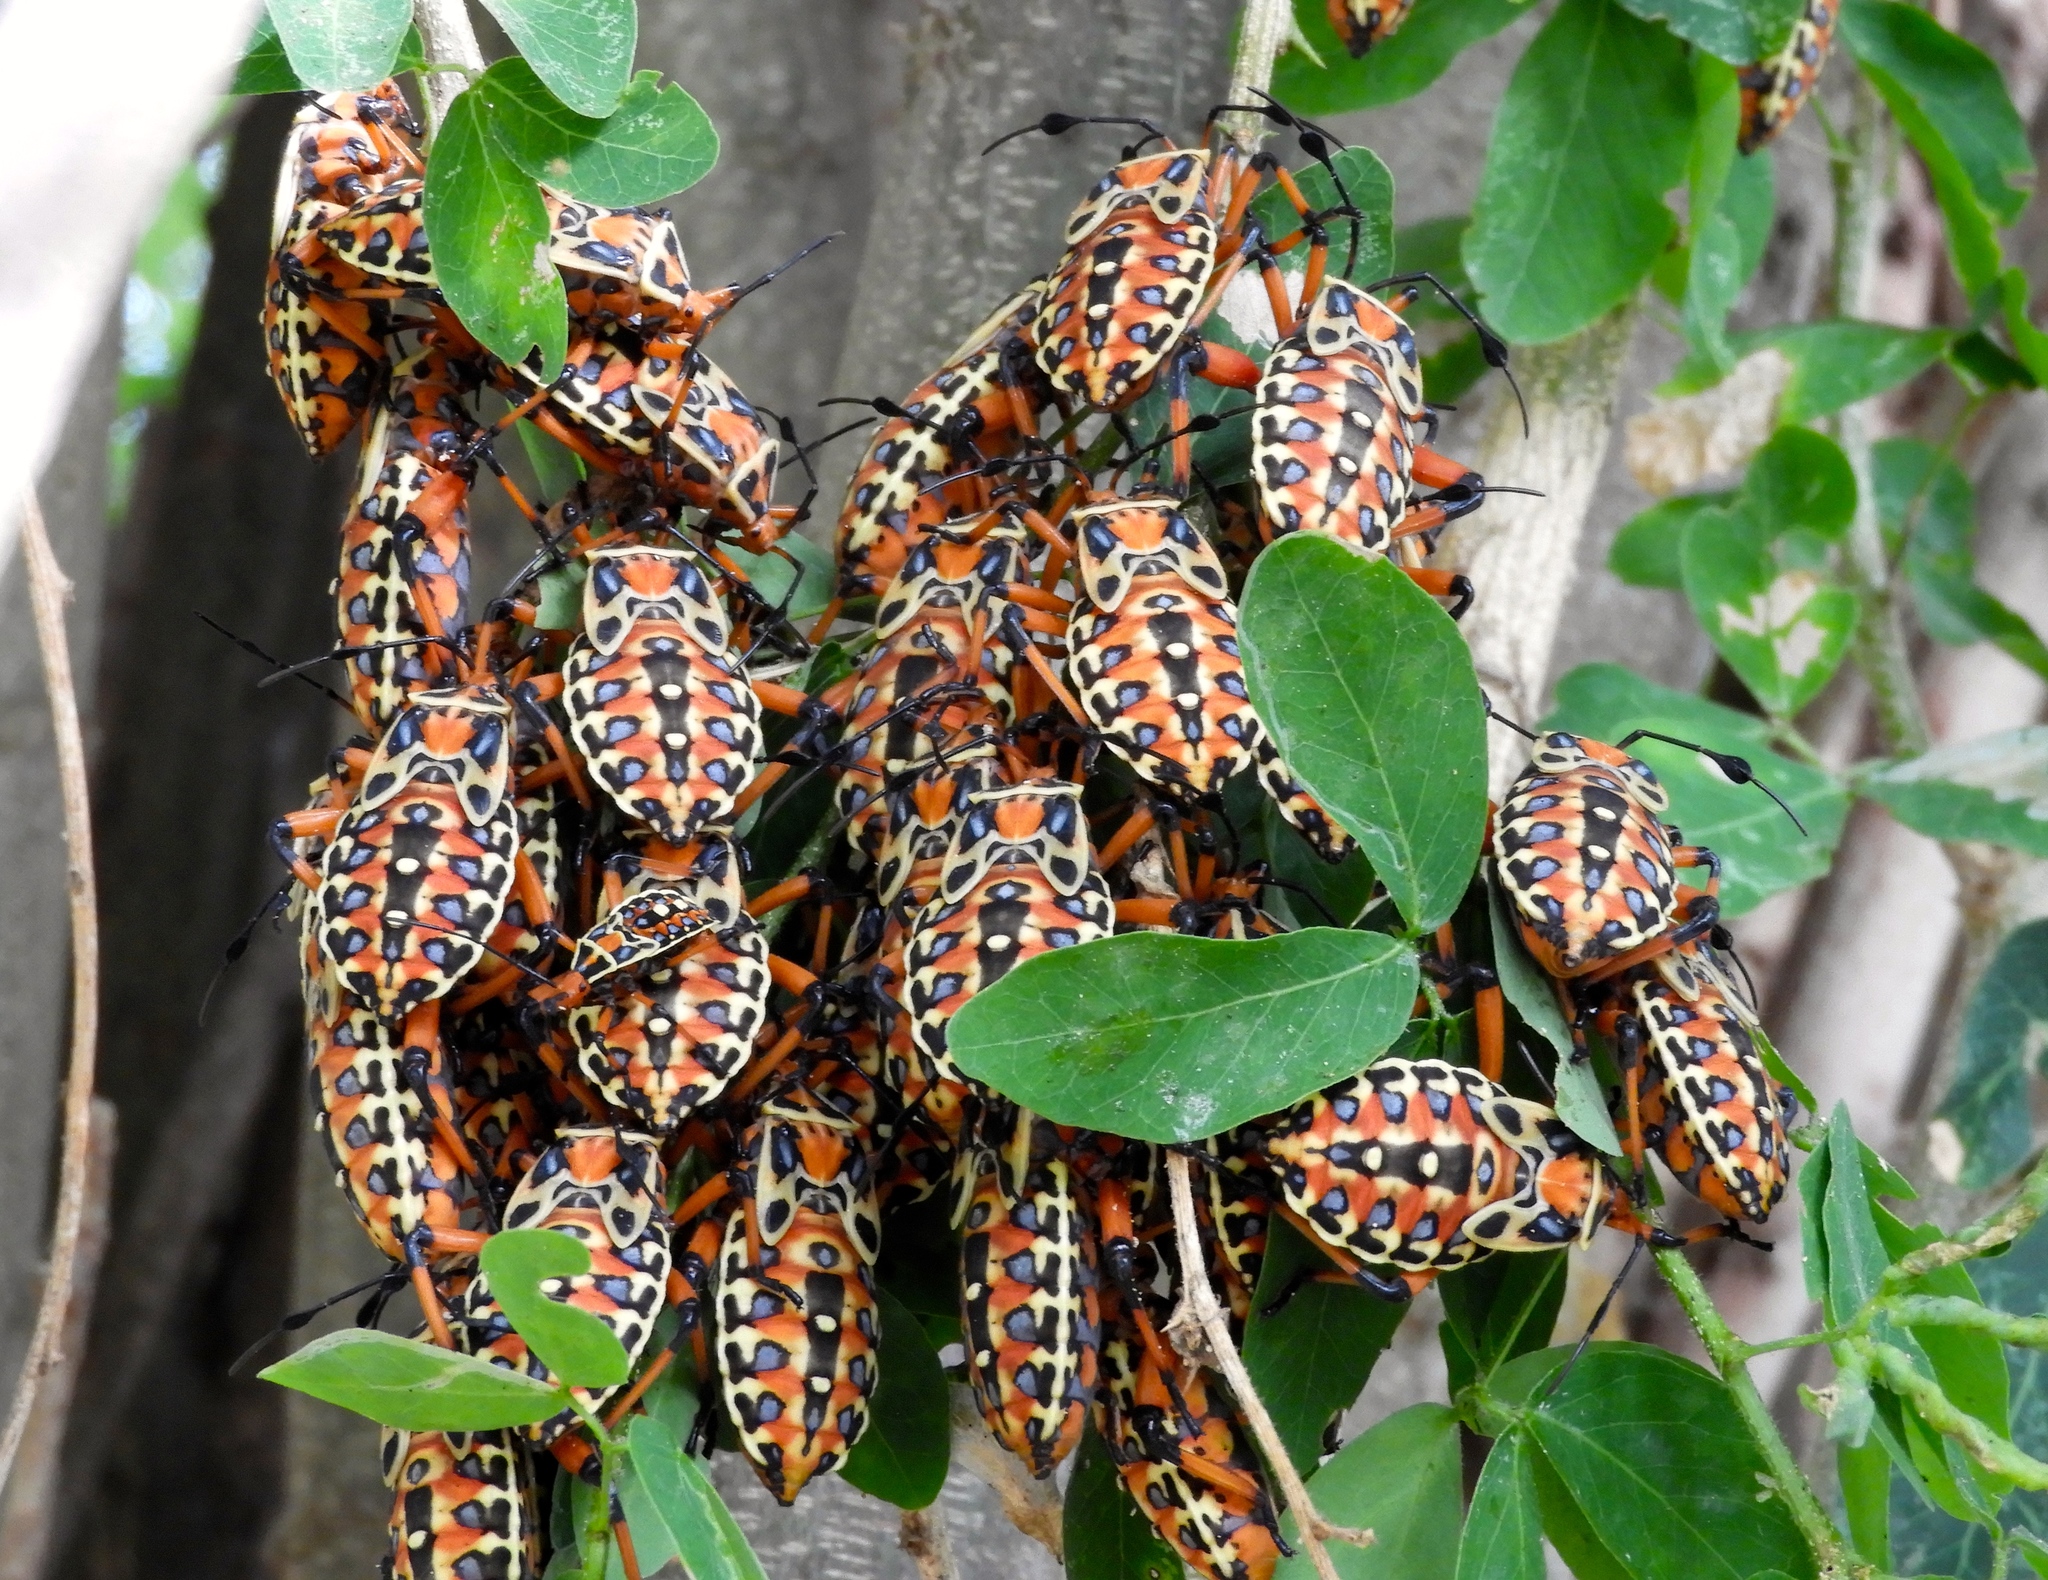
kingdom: Animalia
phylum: Arthropoda
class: Insecta
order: Hemiptera
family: Coreidae
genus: Pachylis
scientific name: Pachylis nervosus
